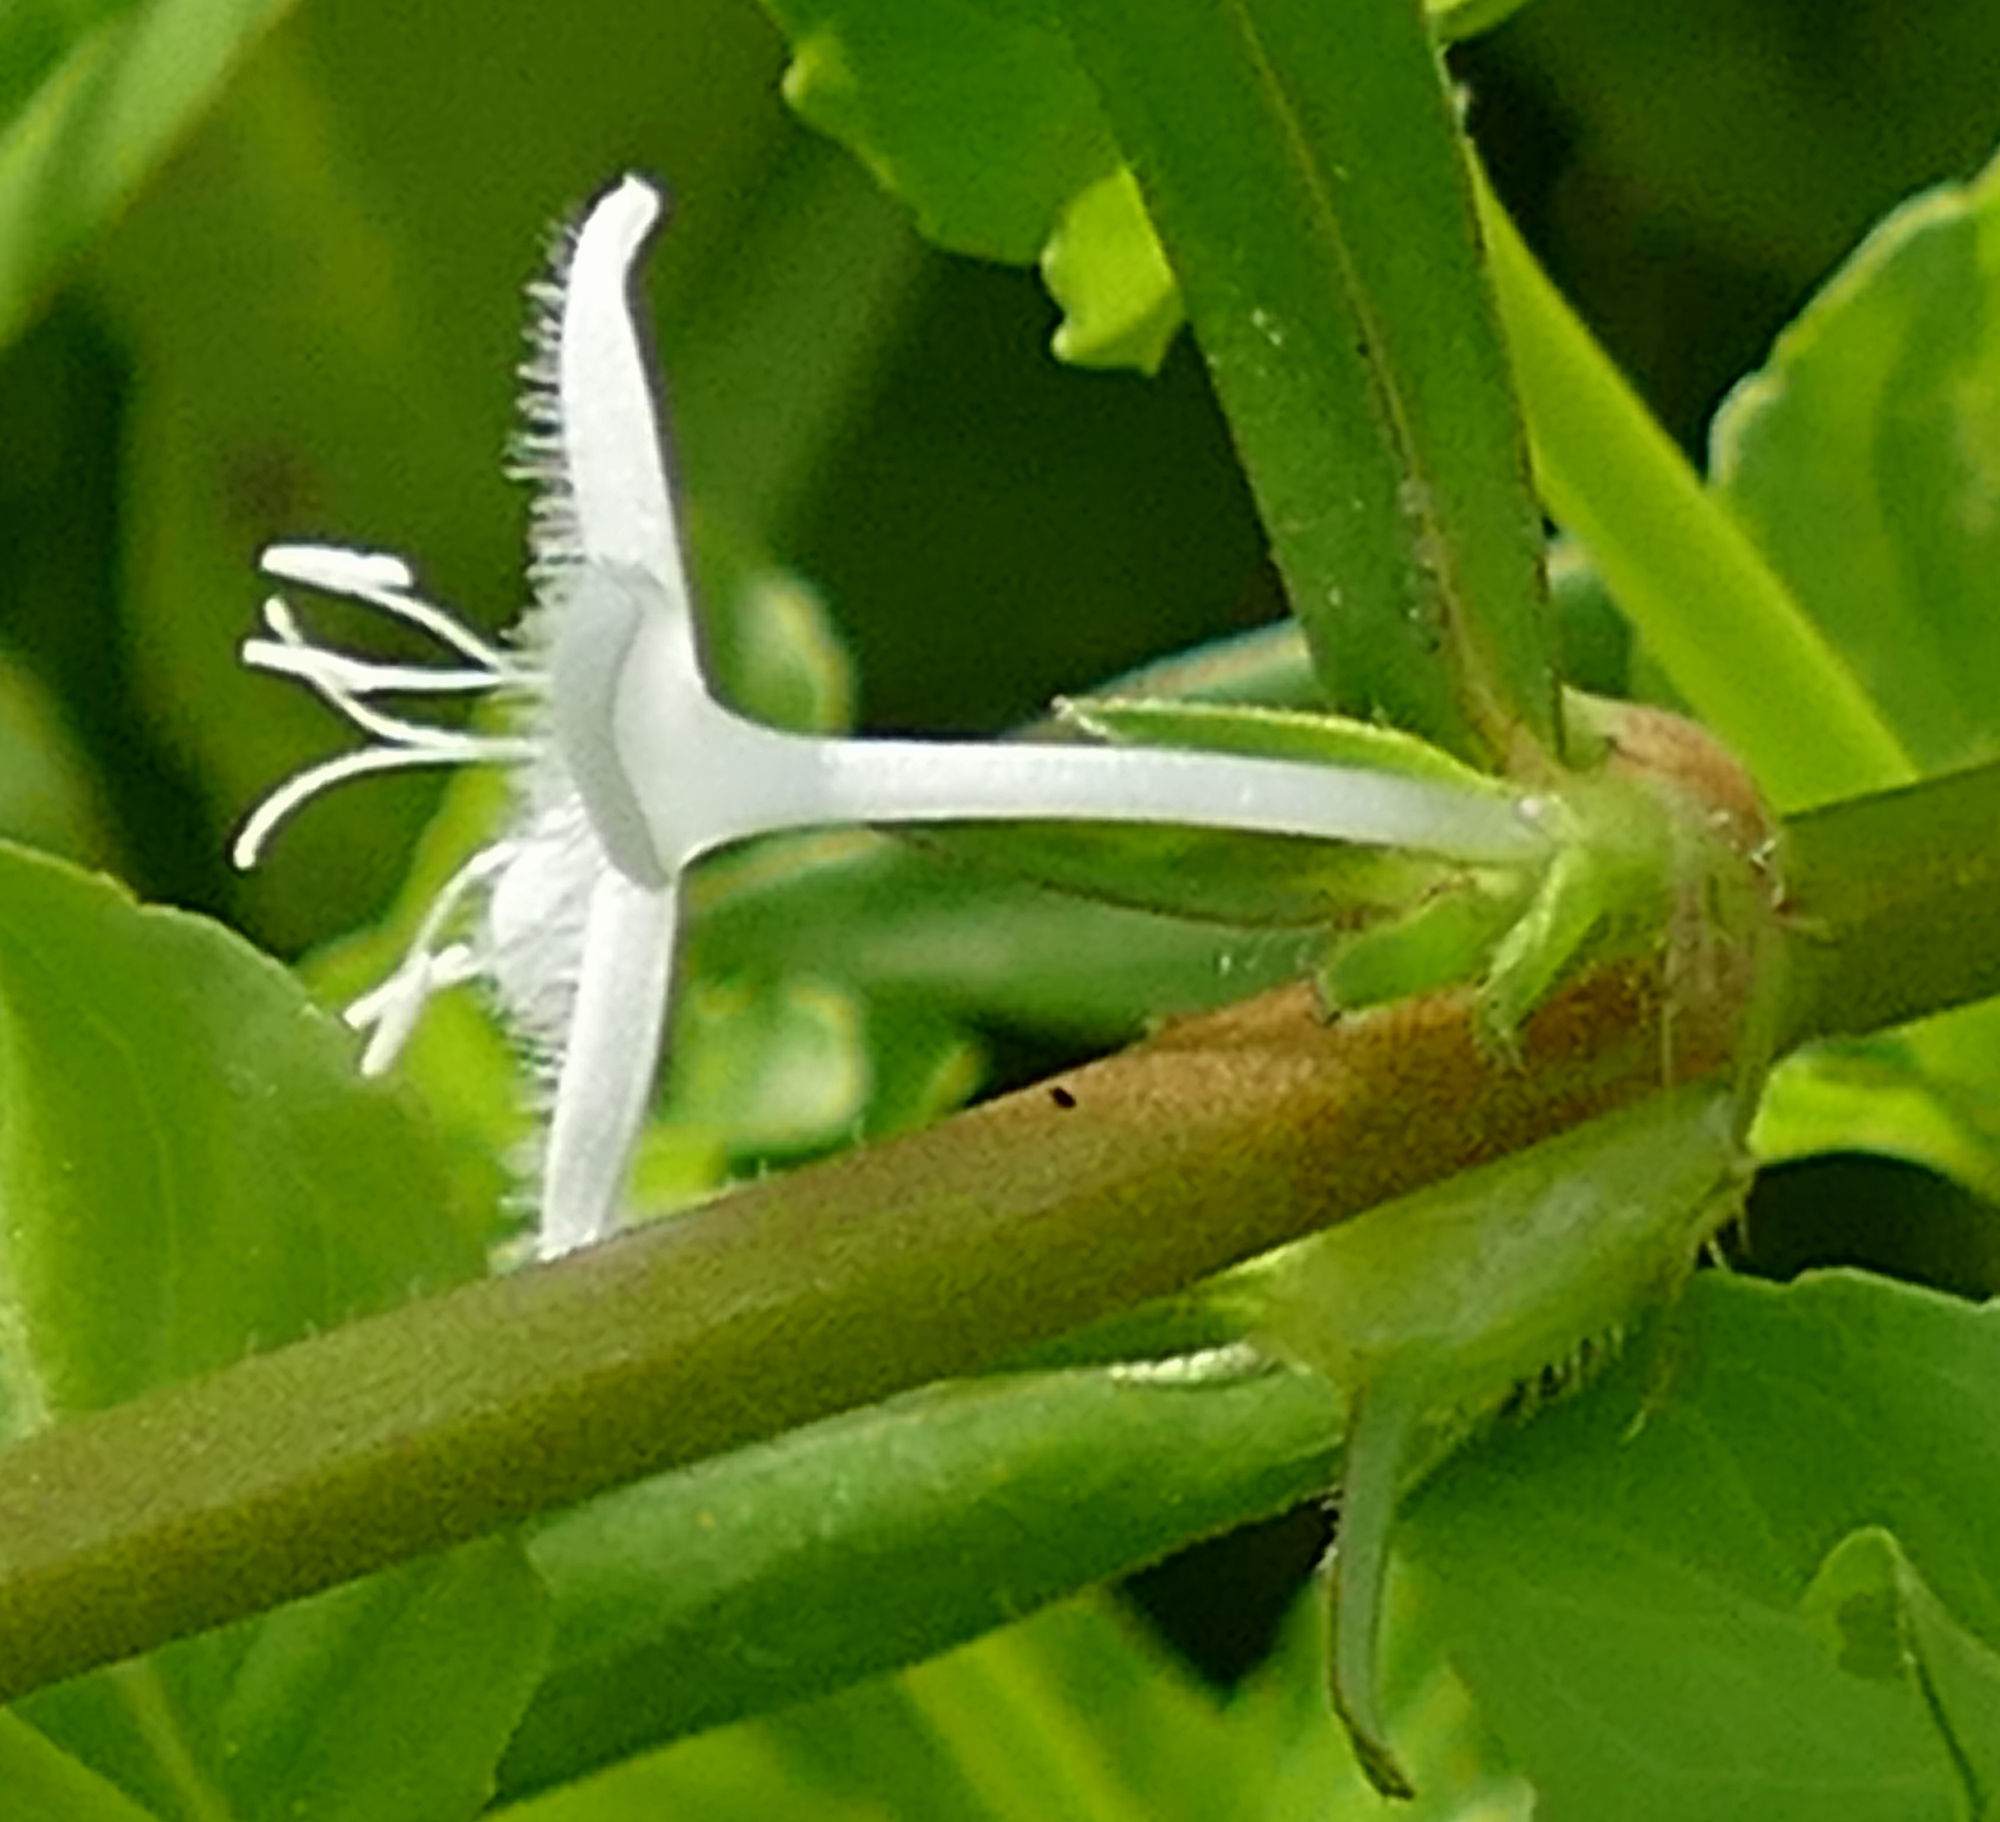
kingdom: Plantae
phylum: Tracheophyta
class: Magnoliopsida
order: Gentianales
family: Rubiaceae
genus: Diodia
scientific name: Diodia virginiana
